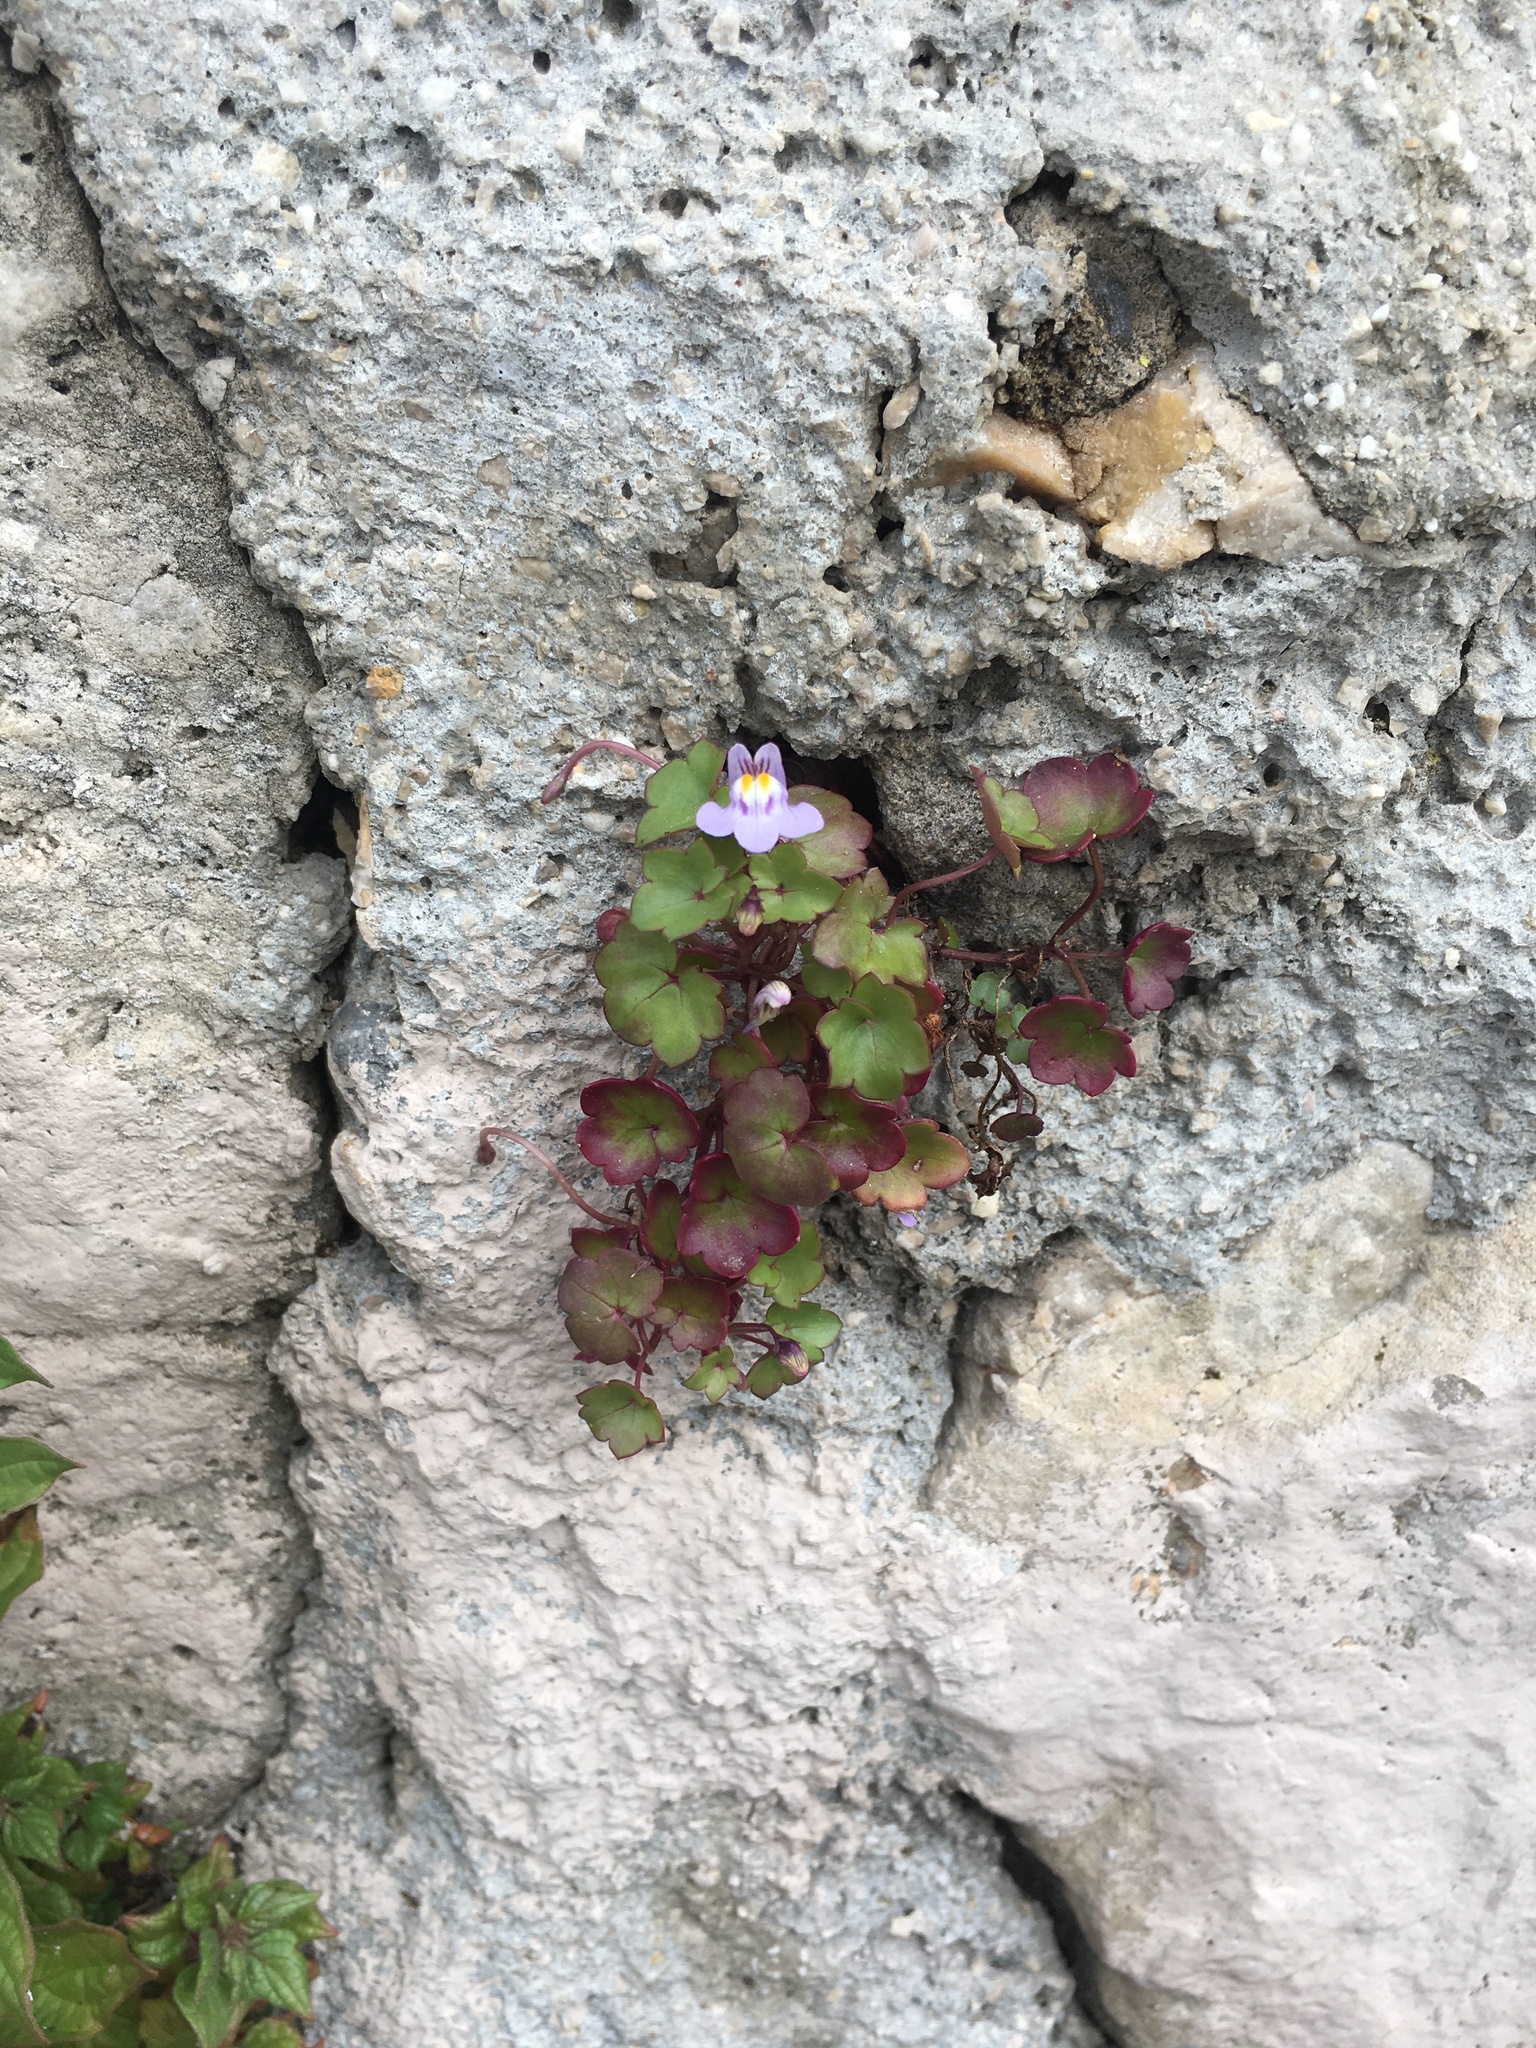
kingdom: Plantae
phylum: Tracheophyta
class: Magnoliopsida
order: Lamiales
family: Plantaginaceae
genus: Cymbalaria
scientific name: Cymbalaria muralis
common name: Ivy-leaved toadflax
